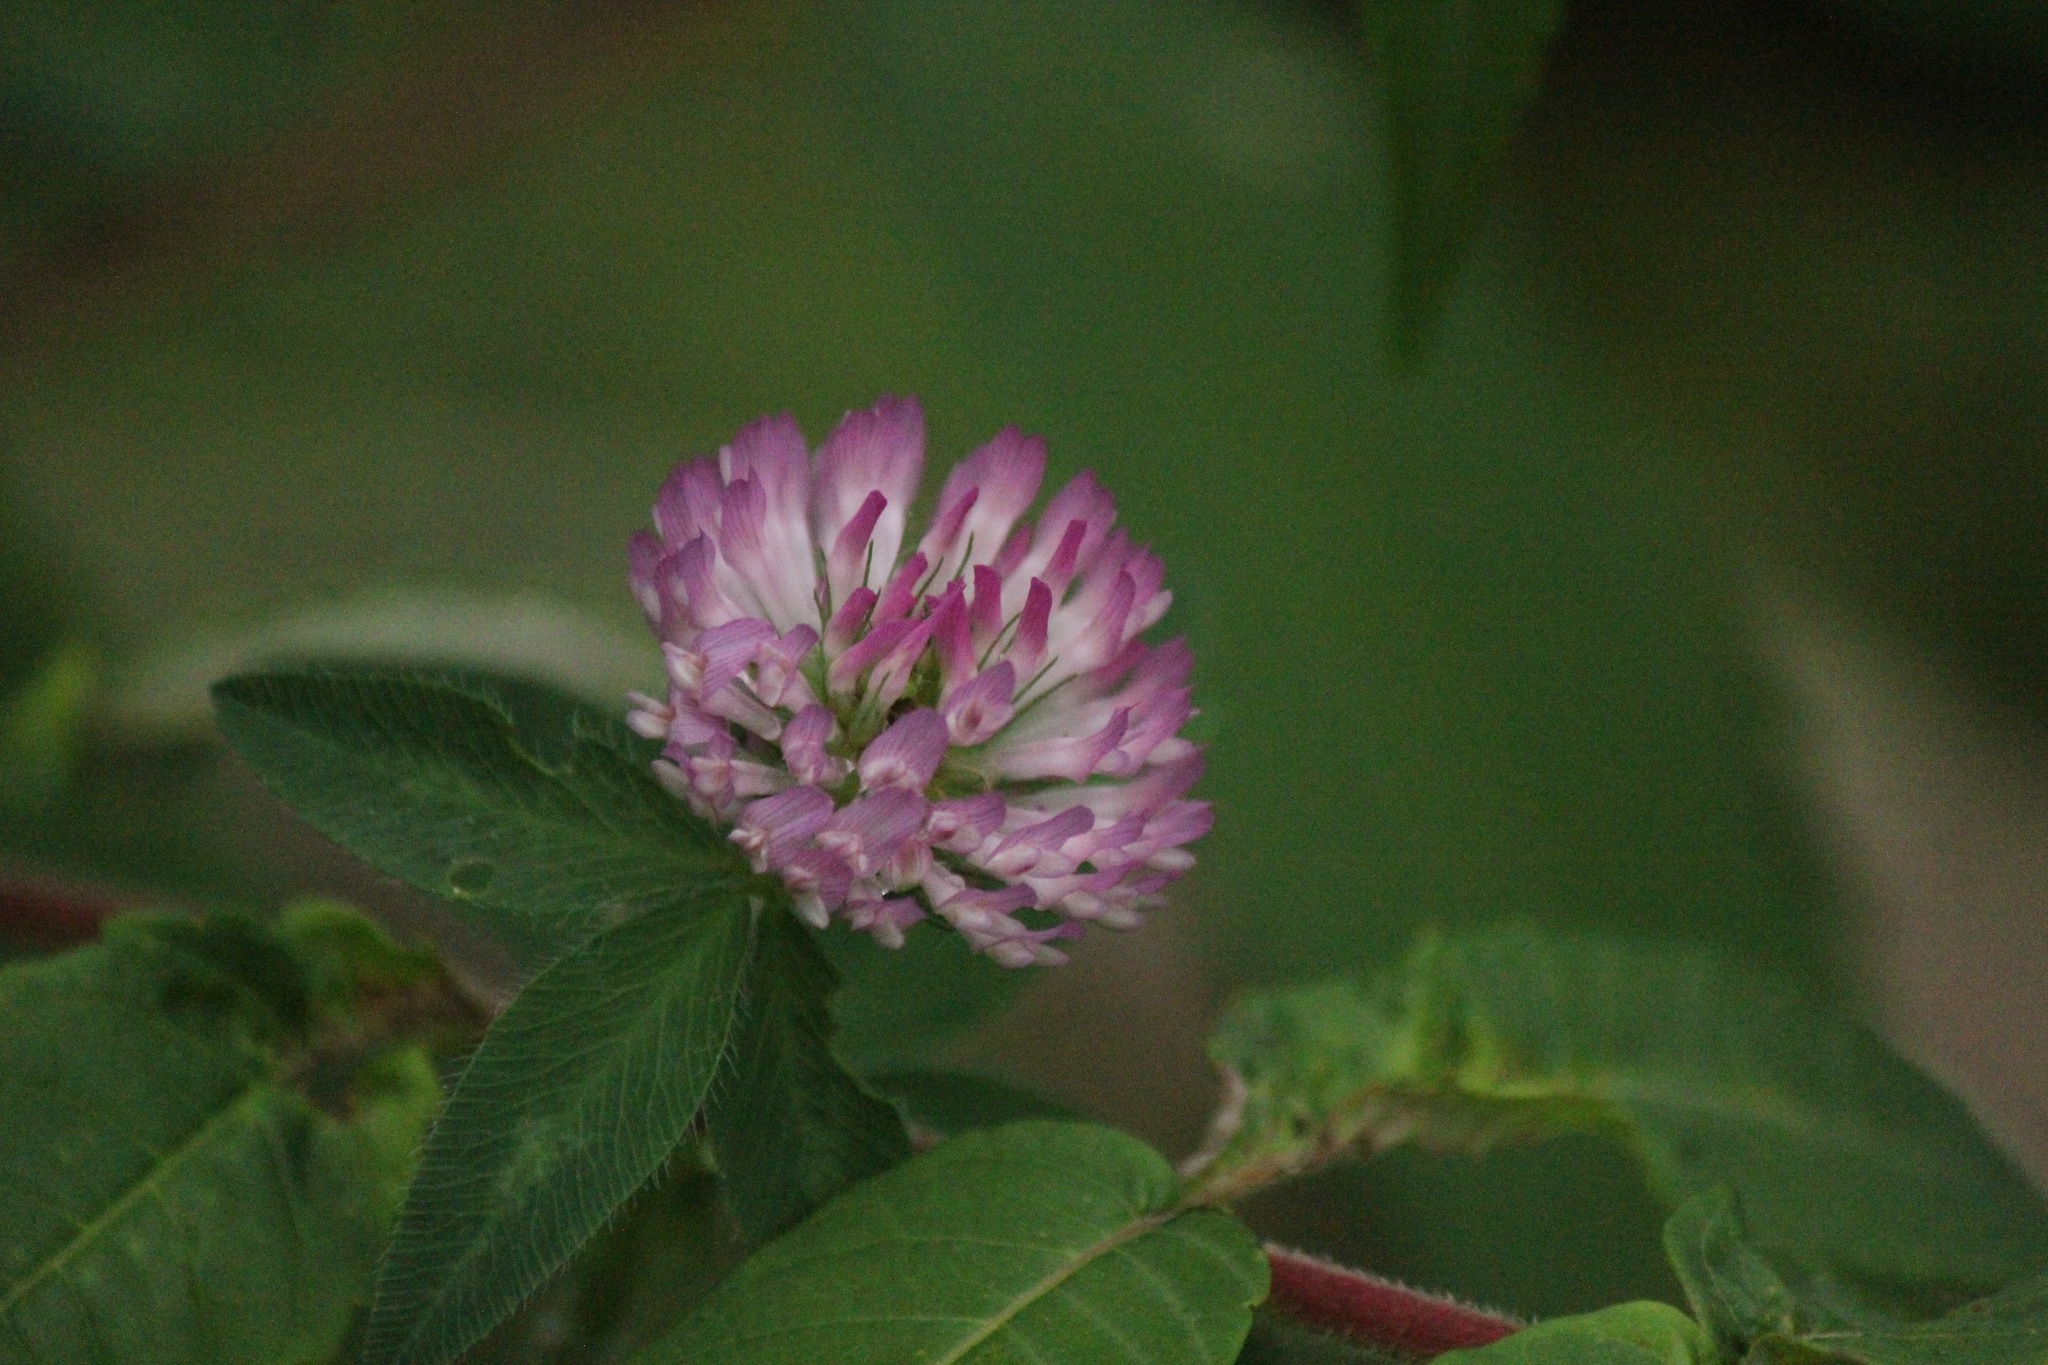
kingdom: Plantae
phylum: Tracheophyta
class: Magnoliopsida
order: Fabales
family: Fabaceae
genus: Trifolium
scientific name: Trifolium pratense
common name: Red clover
